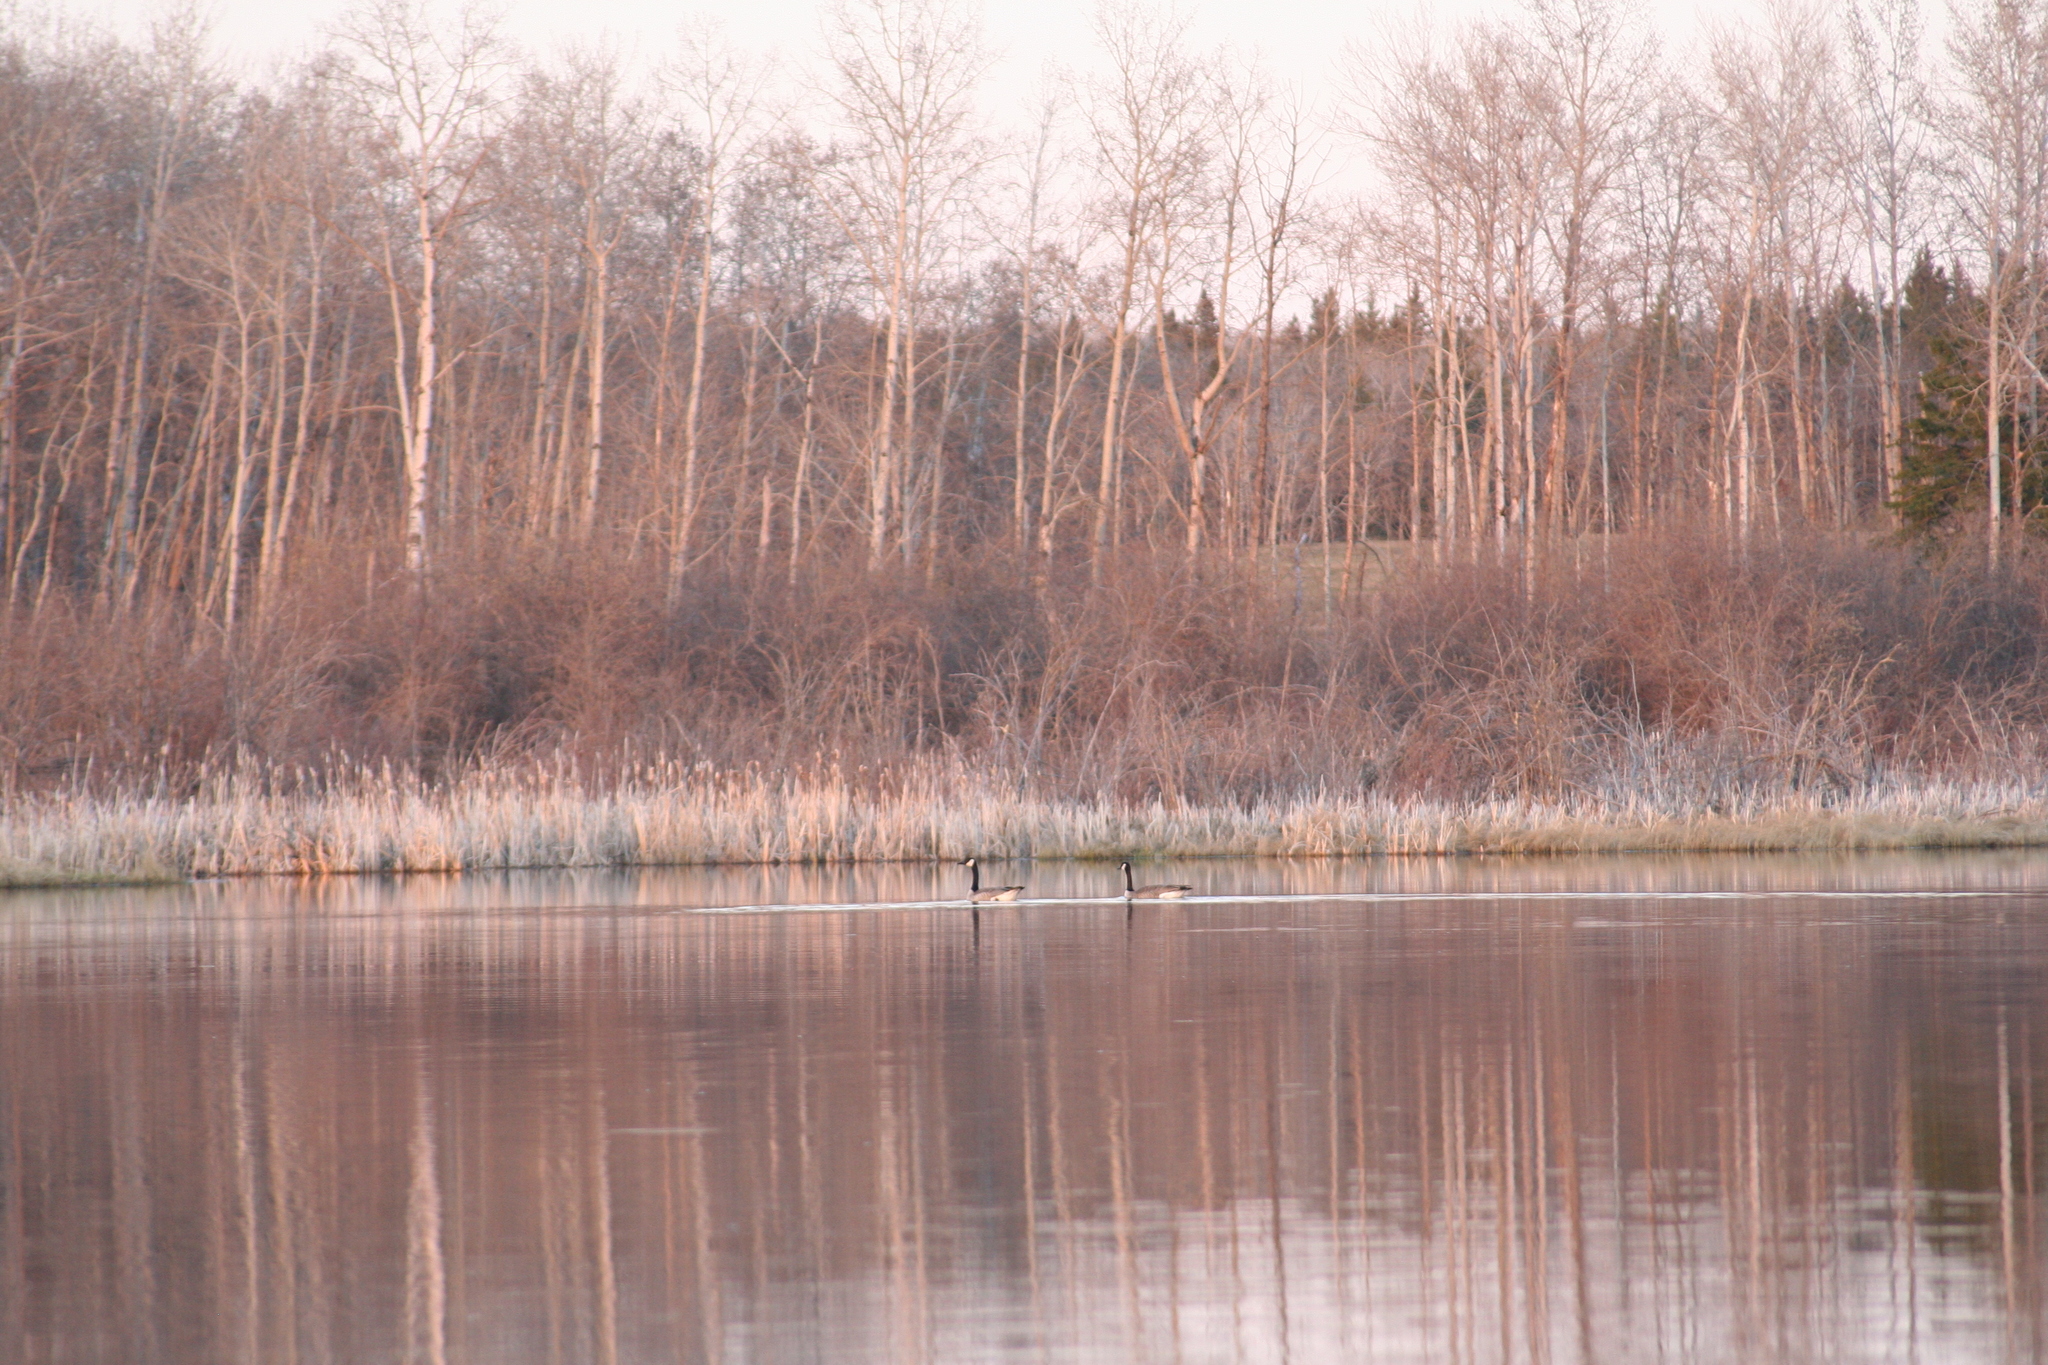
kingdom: Animalia
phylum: Chordata
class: Aves
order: Anseriformes
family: Anatidae
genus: Branta
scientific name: Branta canadensis
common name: Canada goose
